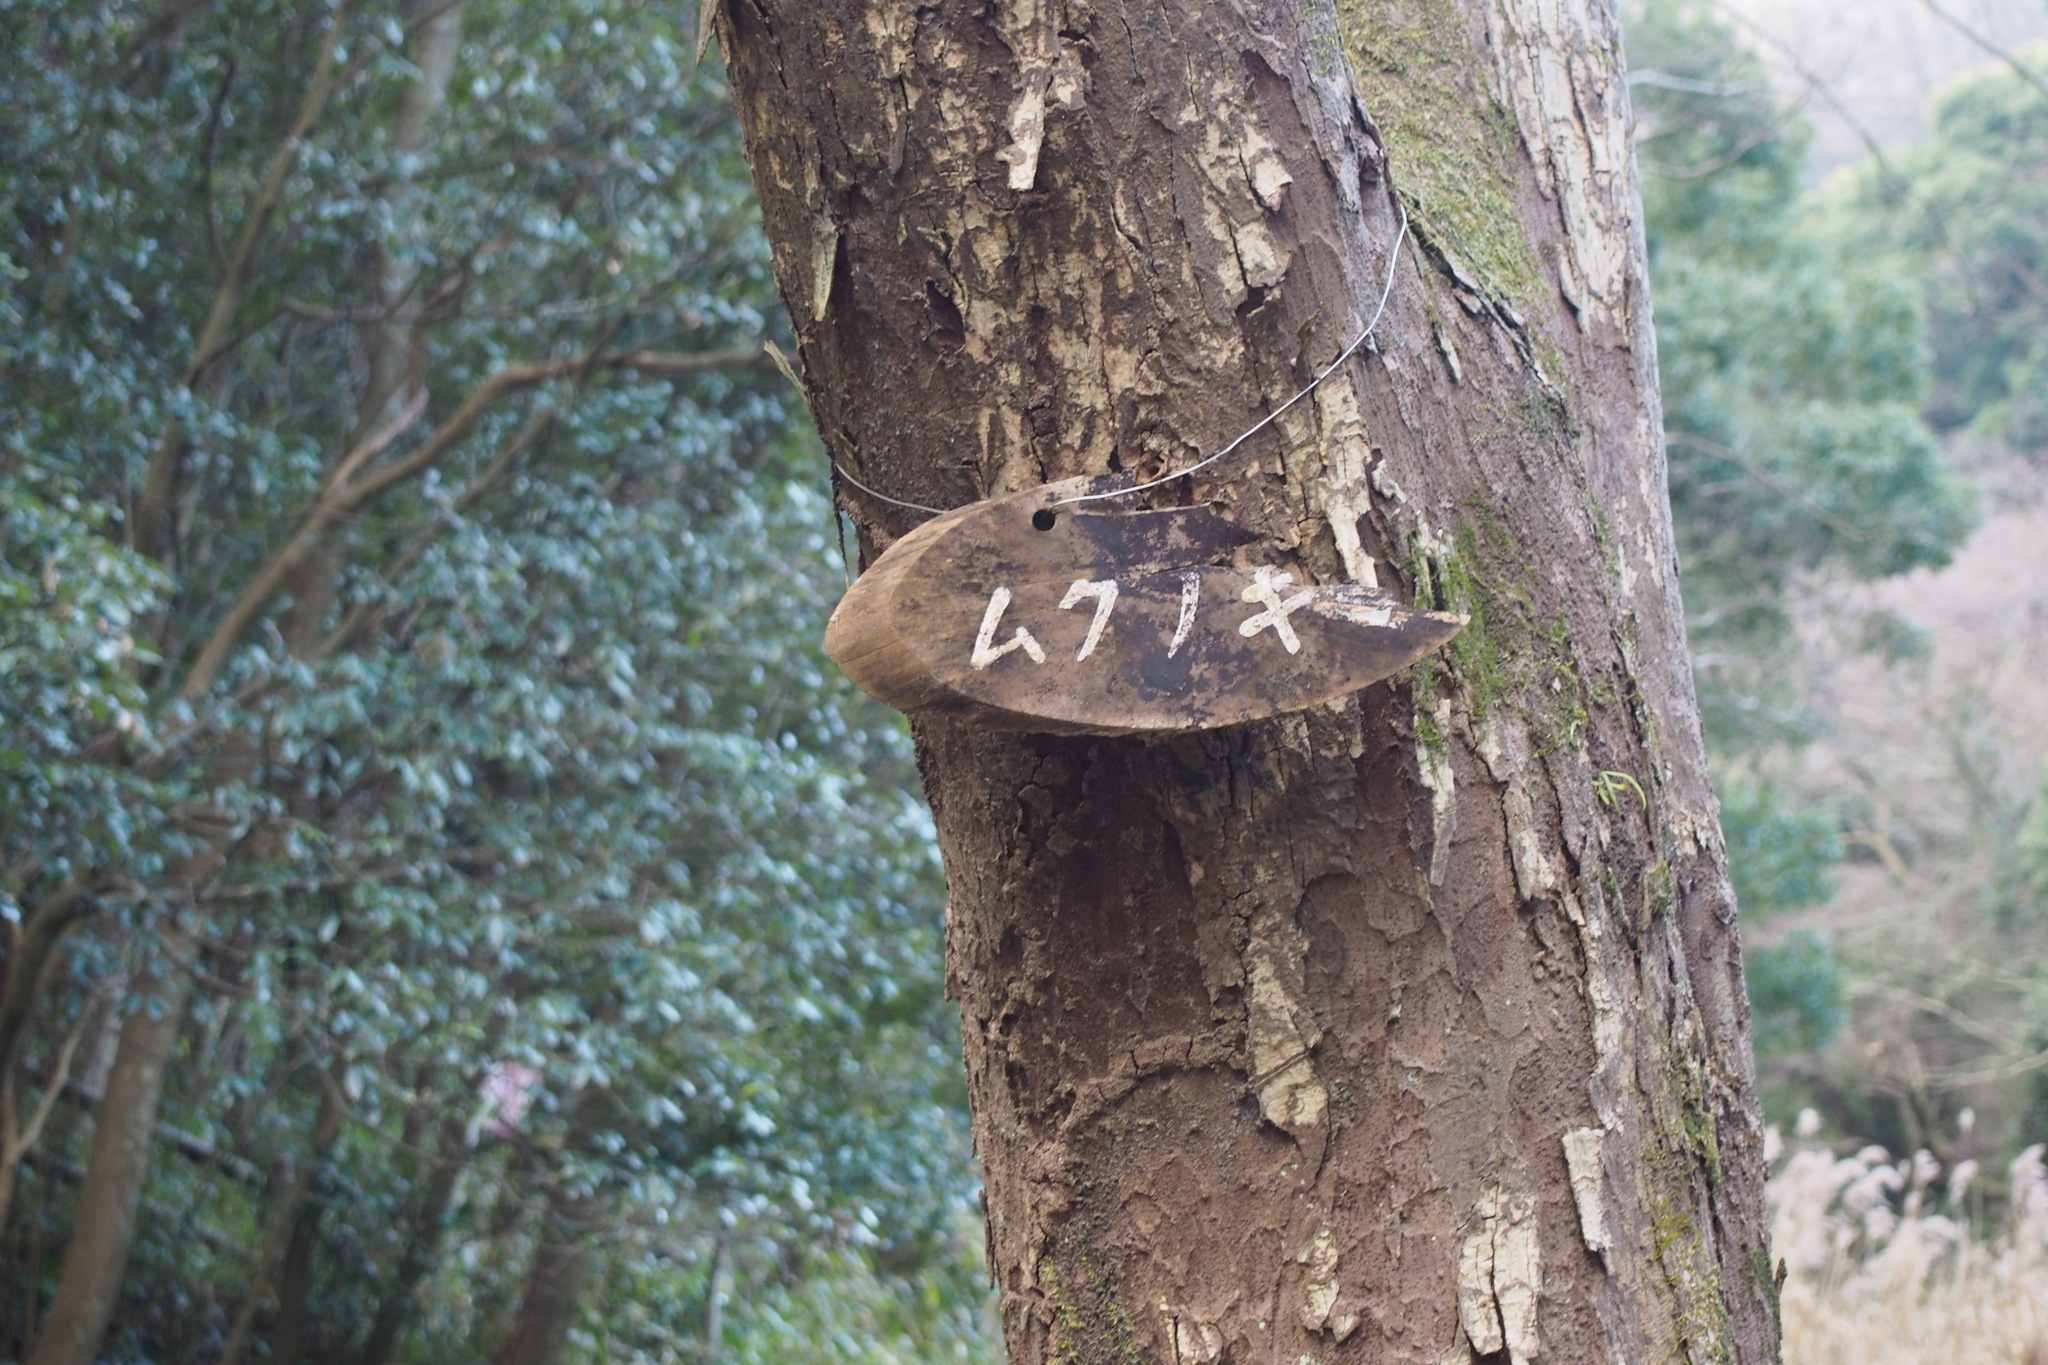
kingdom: Plantae
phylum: Tracheophyta
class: Magnoliopsida
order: Rosales
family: Cannabaceae
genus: Aphananthe
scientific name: Aphananthe aspera
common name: Mukutree
